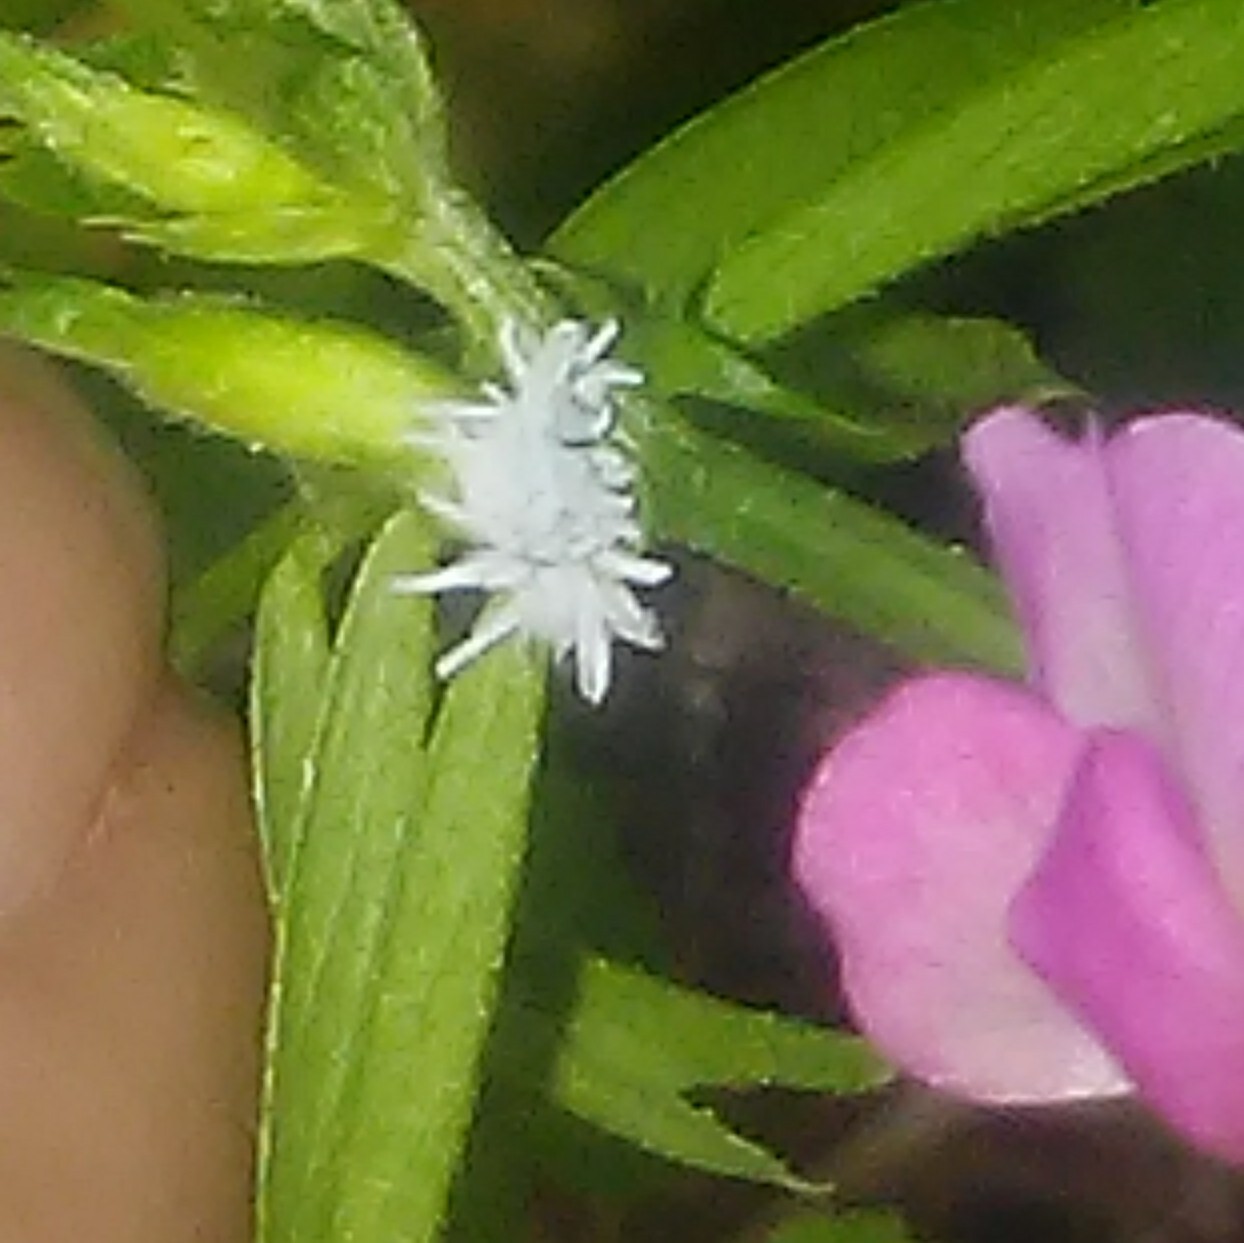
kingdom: Animalia
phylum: Arthropoda
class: Insecta
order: Coleoptera
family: Coccinellidae
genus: Cryptolaemus
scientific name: Cryptolaemus montrouzieri
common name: Mealybug destroyer
